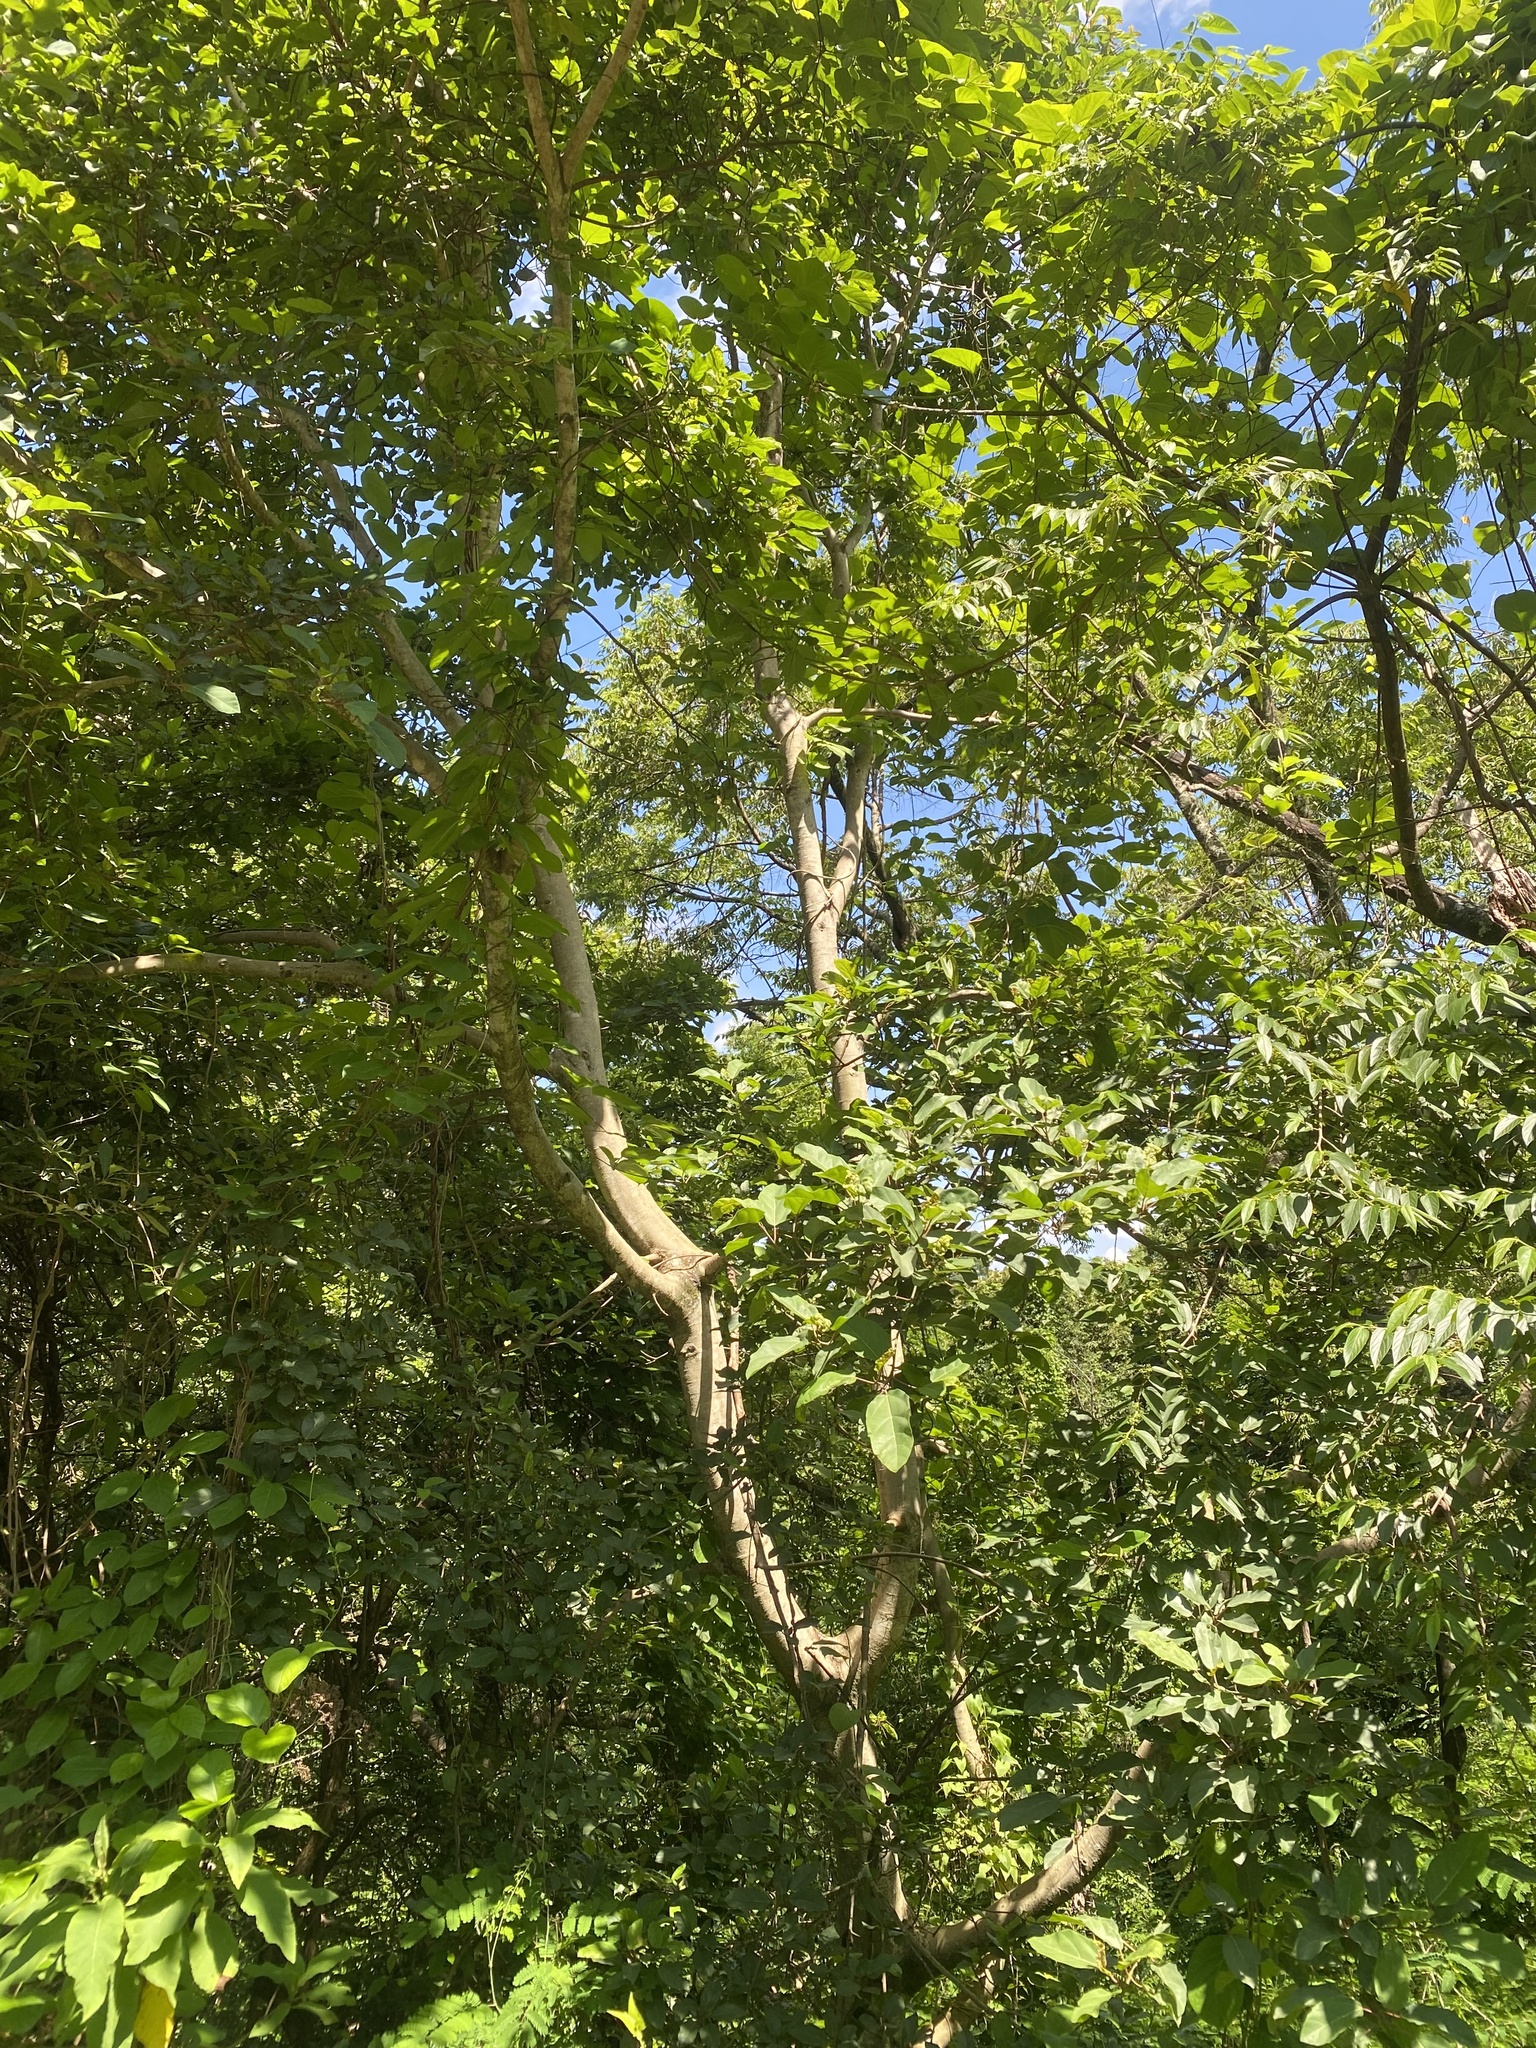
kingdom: Plantae
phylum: Tracheophyta
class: Magnoliopsida
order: Rosales
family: Moraceae
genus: Ficus
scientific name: Ficus sur
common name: Cape fig
